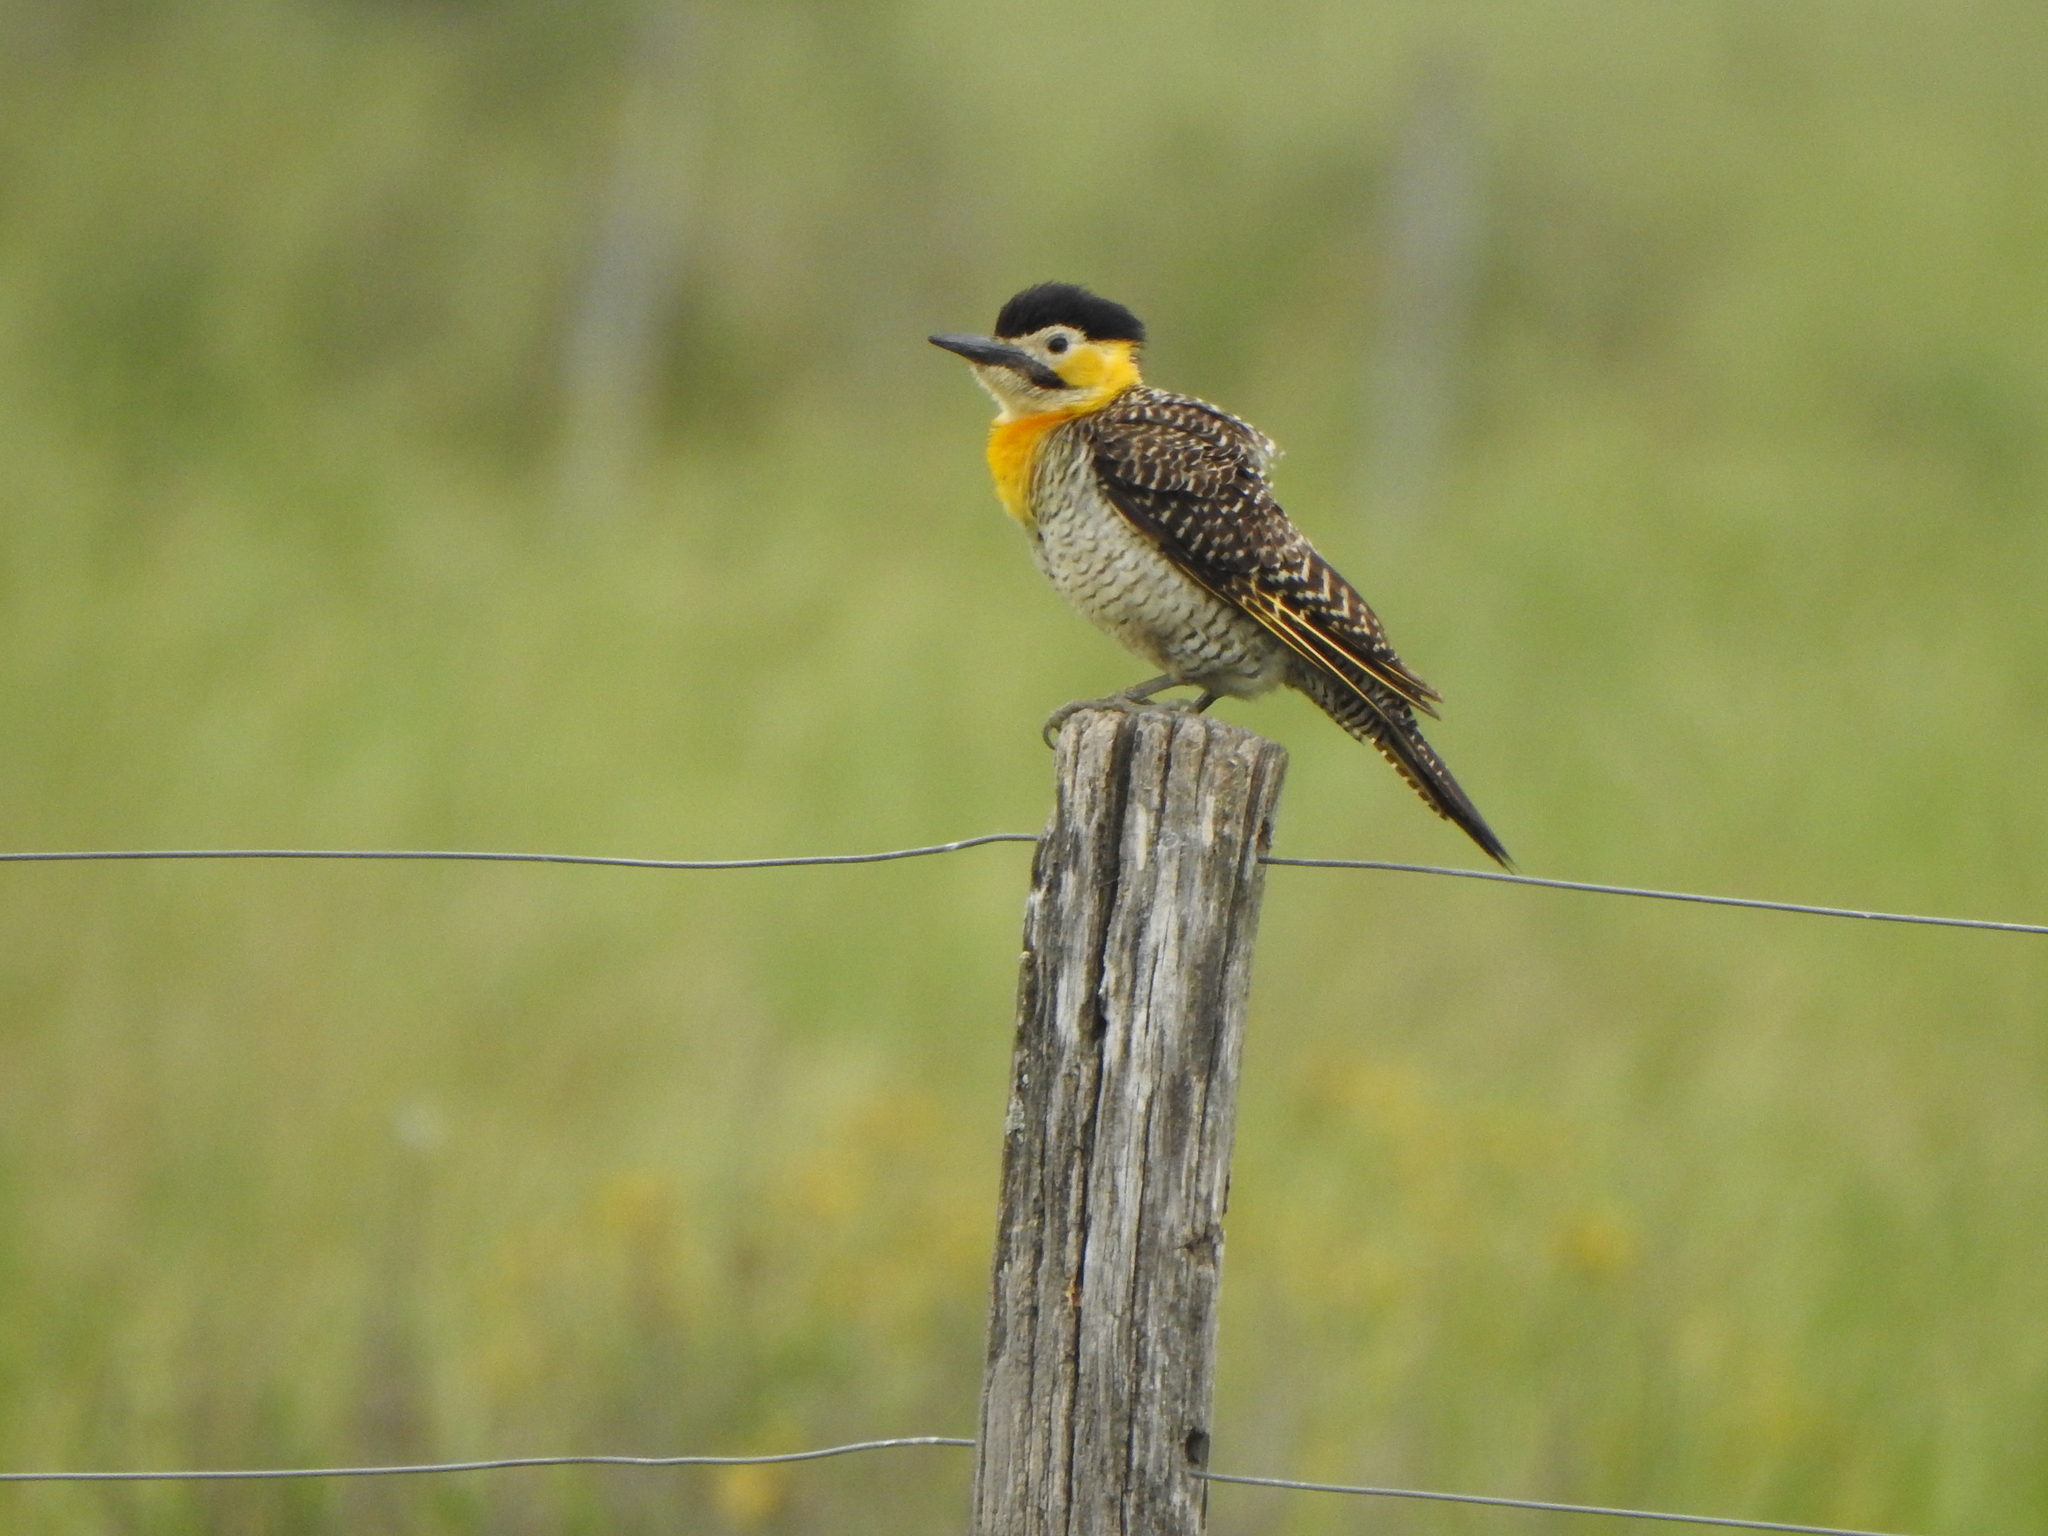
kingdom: Animalia
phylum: Chordata
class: Aves
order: Piciformes
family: Picidae
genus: Colaptes
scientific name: Colaptes campestris
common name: Campo flicker
